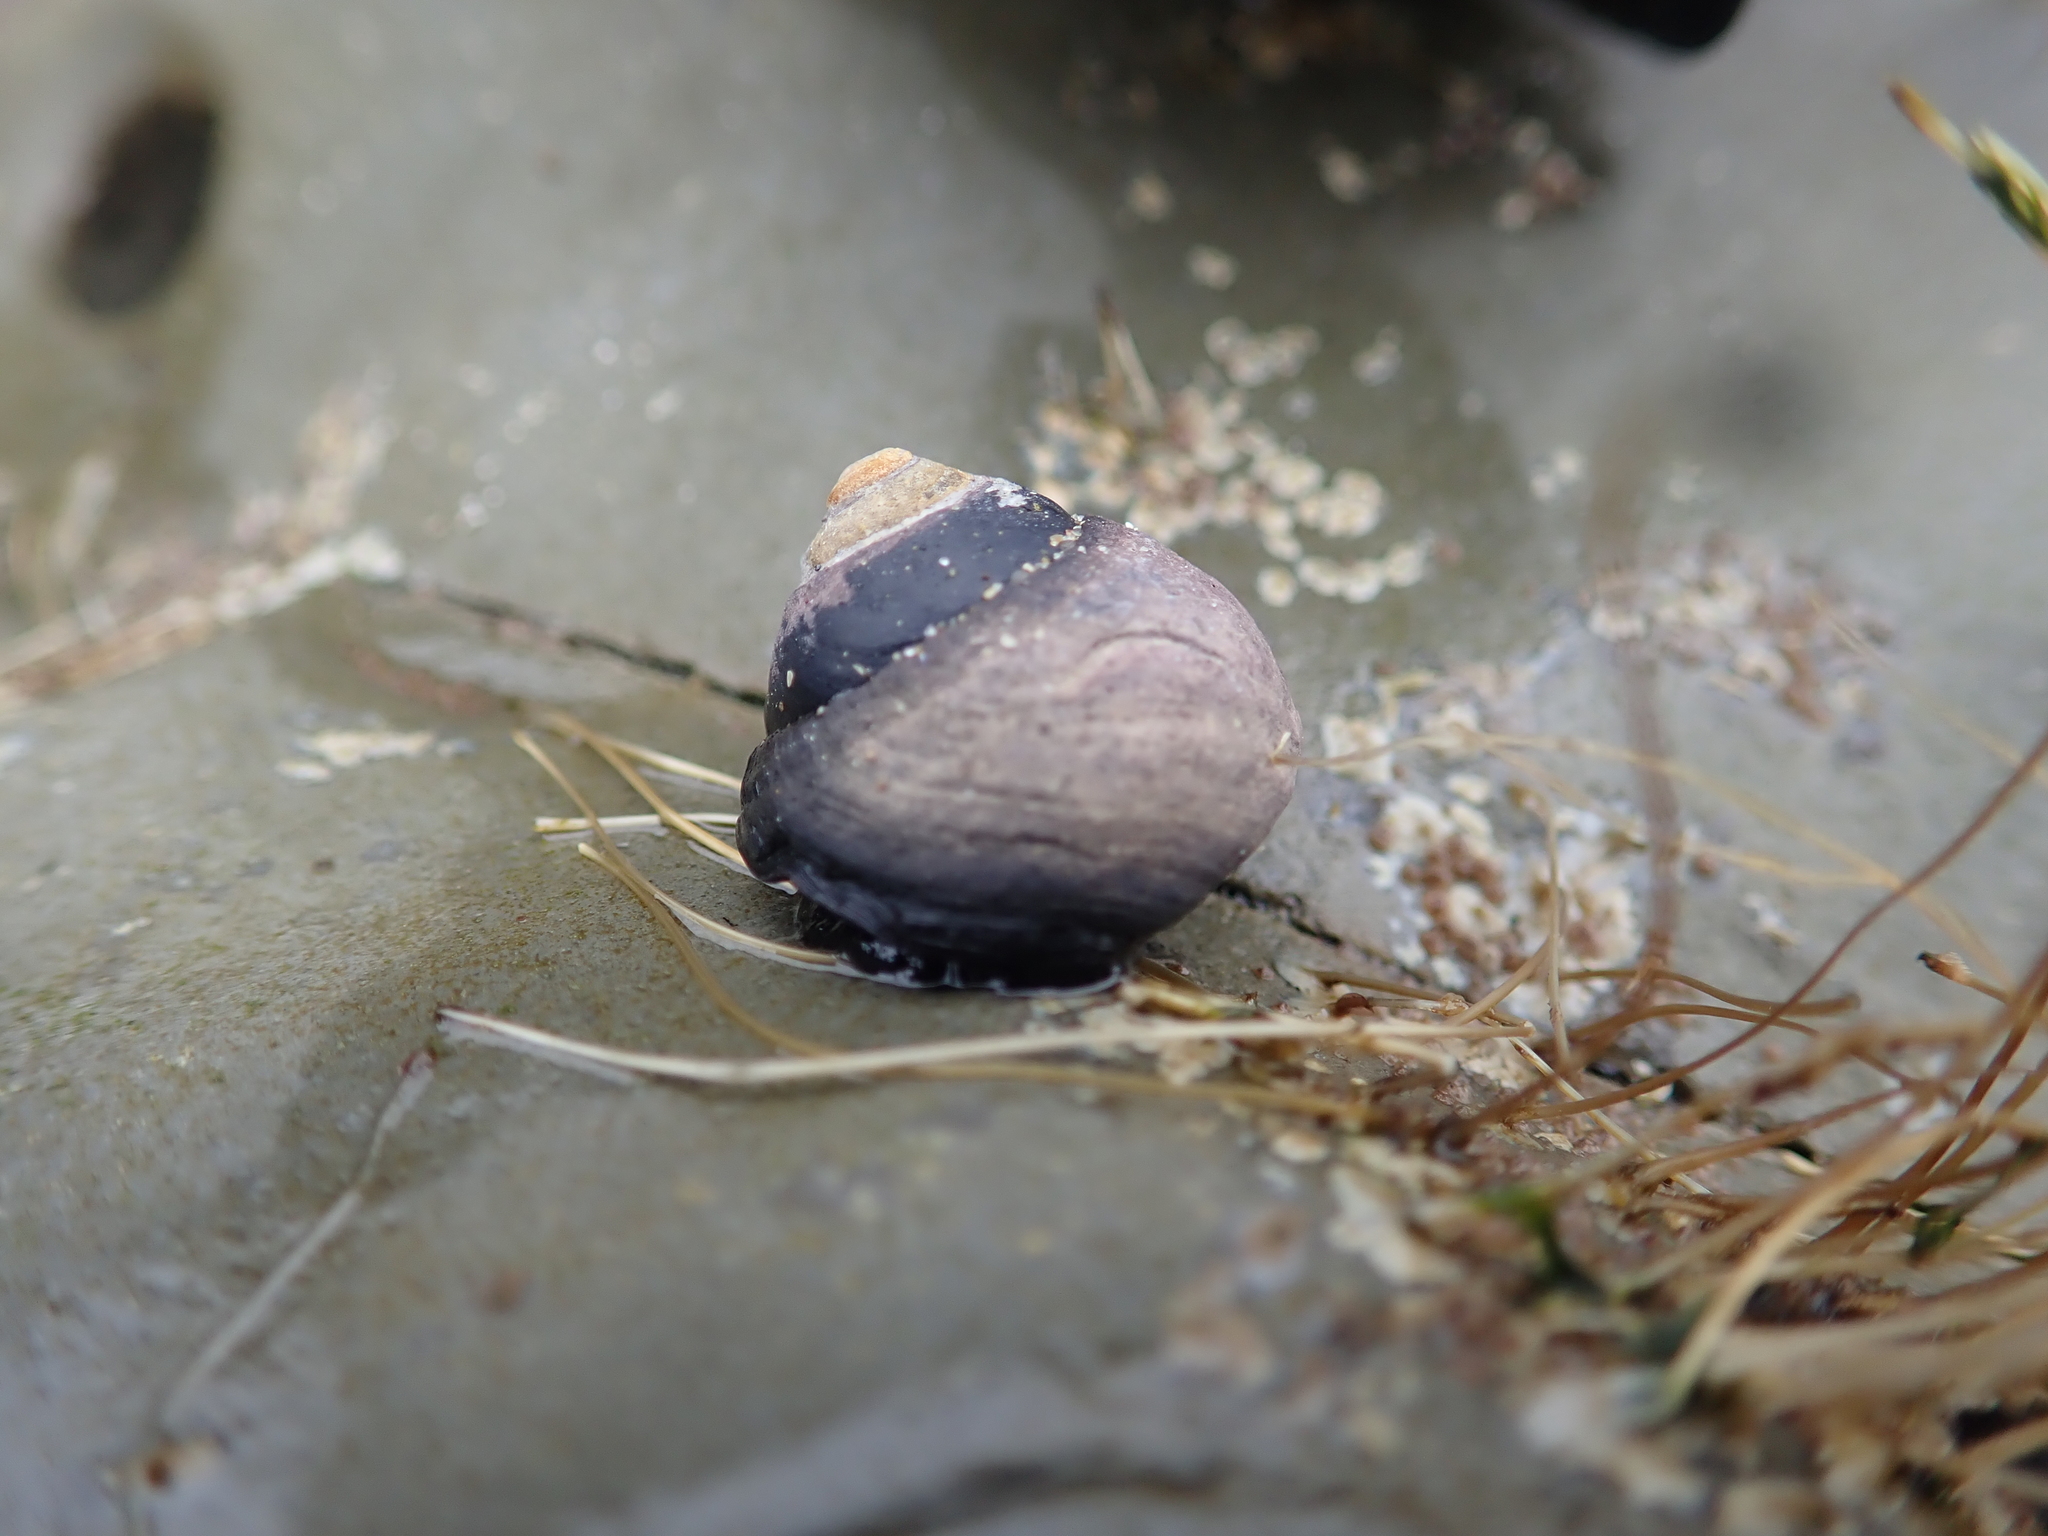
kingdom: Animalia
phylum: Mollusca
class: Gastropoda
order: Trochida
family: Tegulidae
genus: Tegula
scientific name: Tegula funebralis
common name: Black tegula
